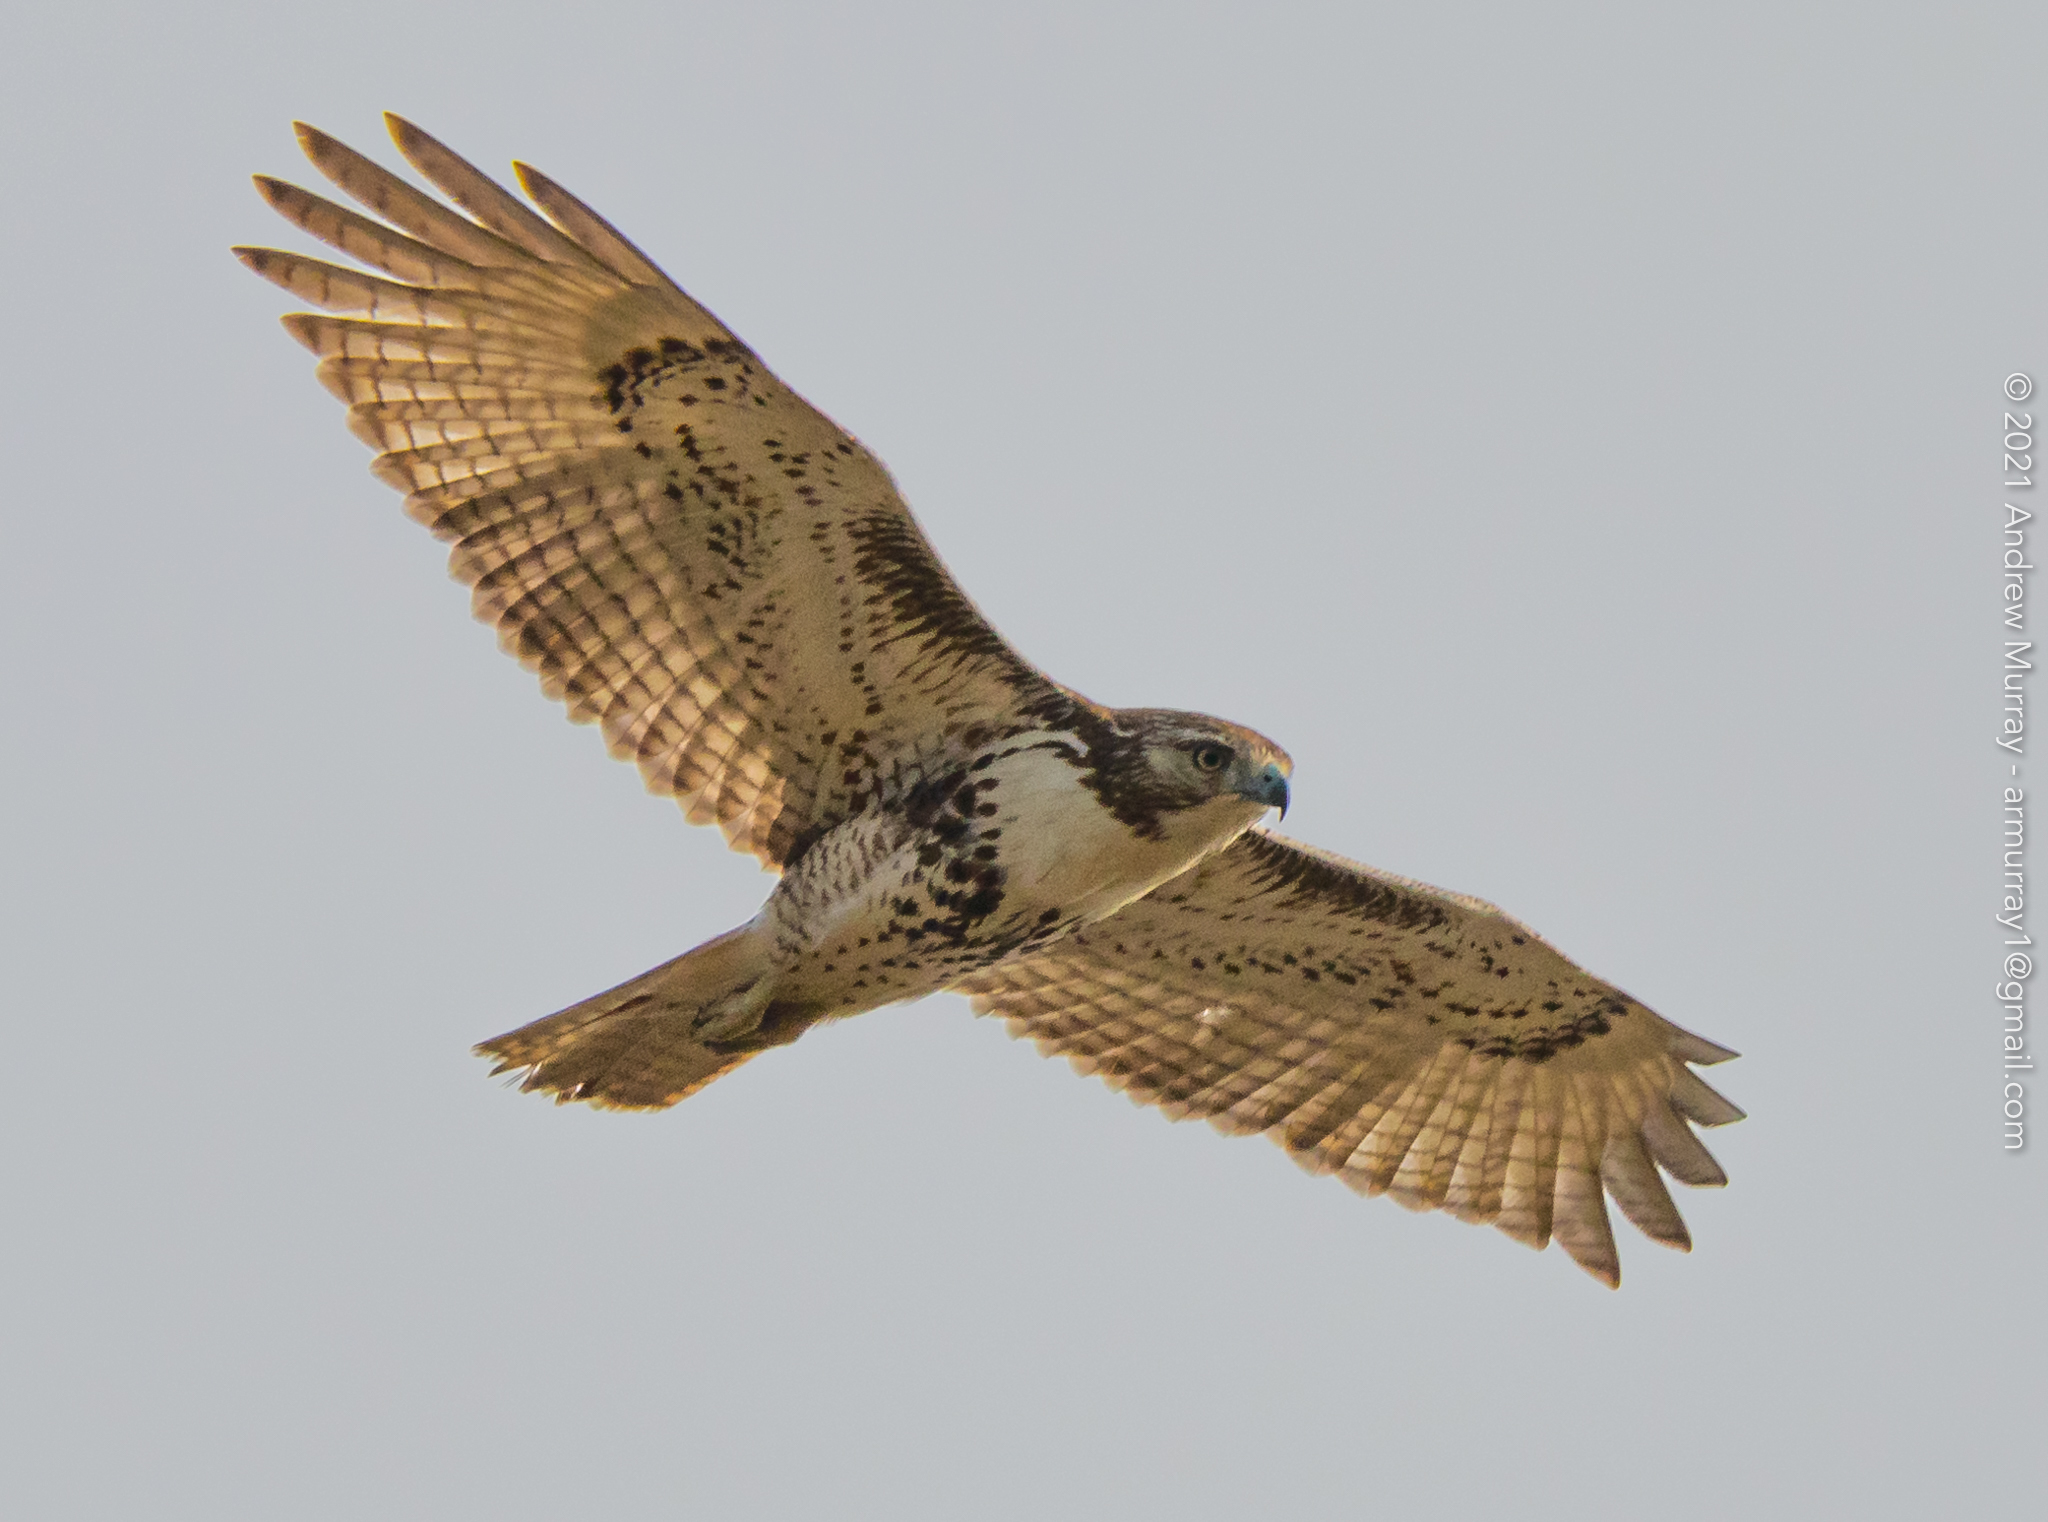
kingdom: Animalia
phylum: Chordata
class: Aves
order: Accipitriformes
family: Accipitridae
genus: Buteo
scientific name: Buteo jamaicensis
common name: Red-tailed hawk
